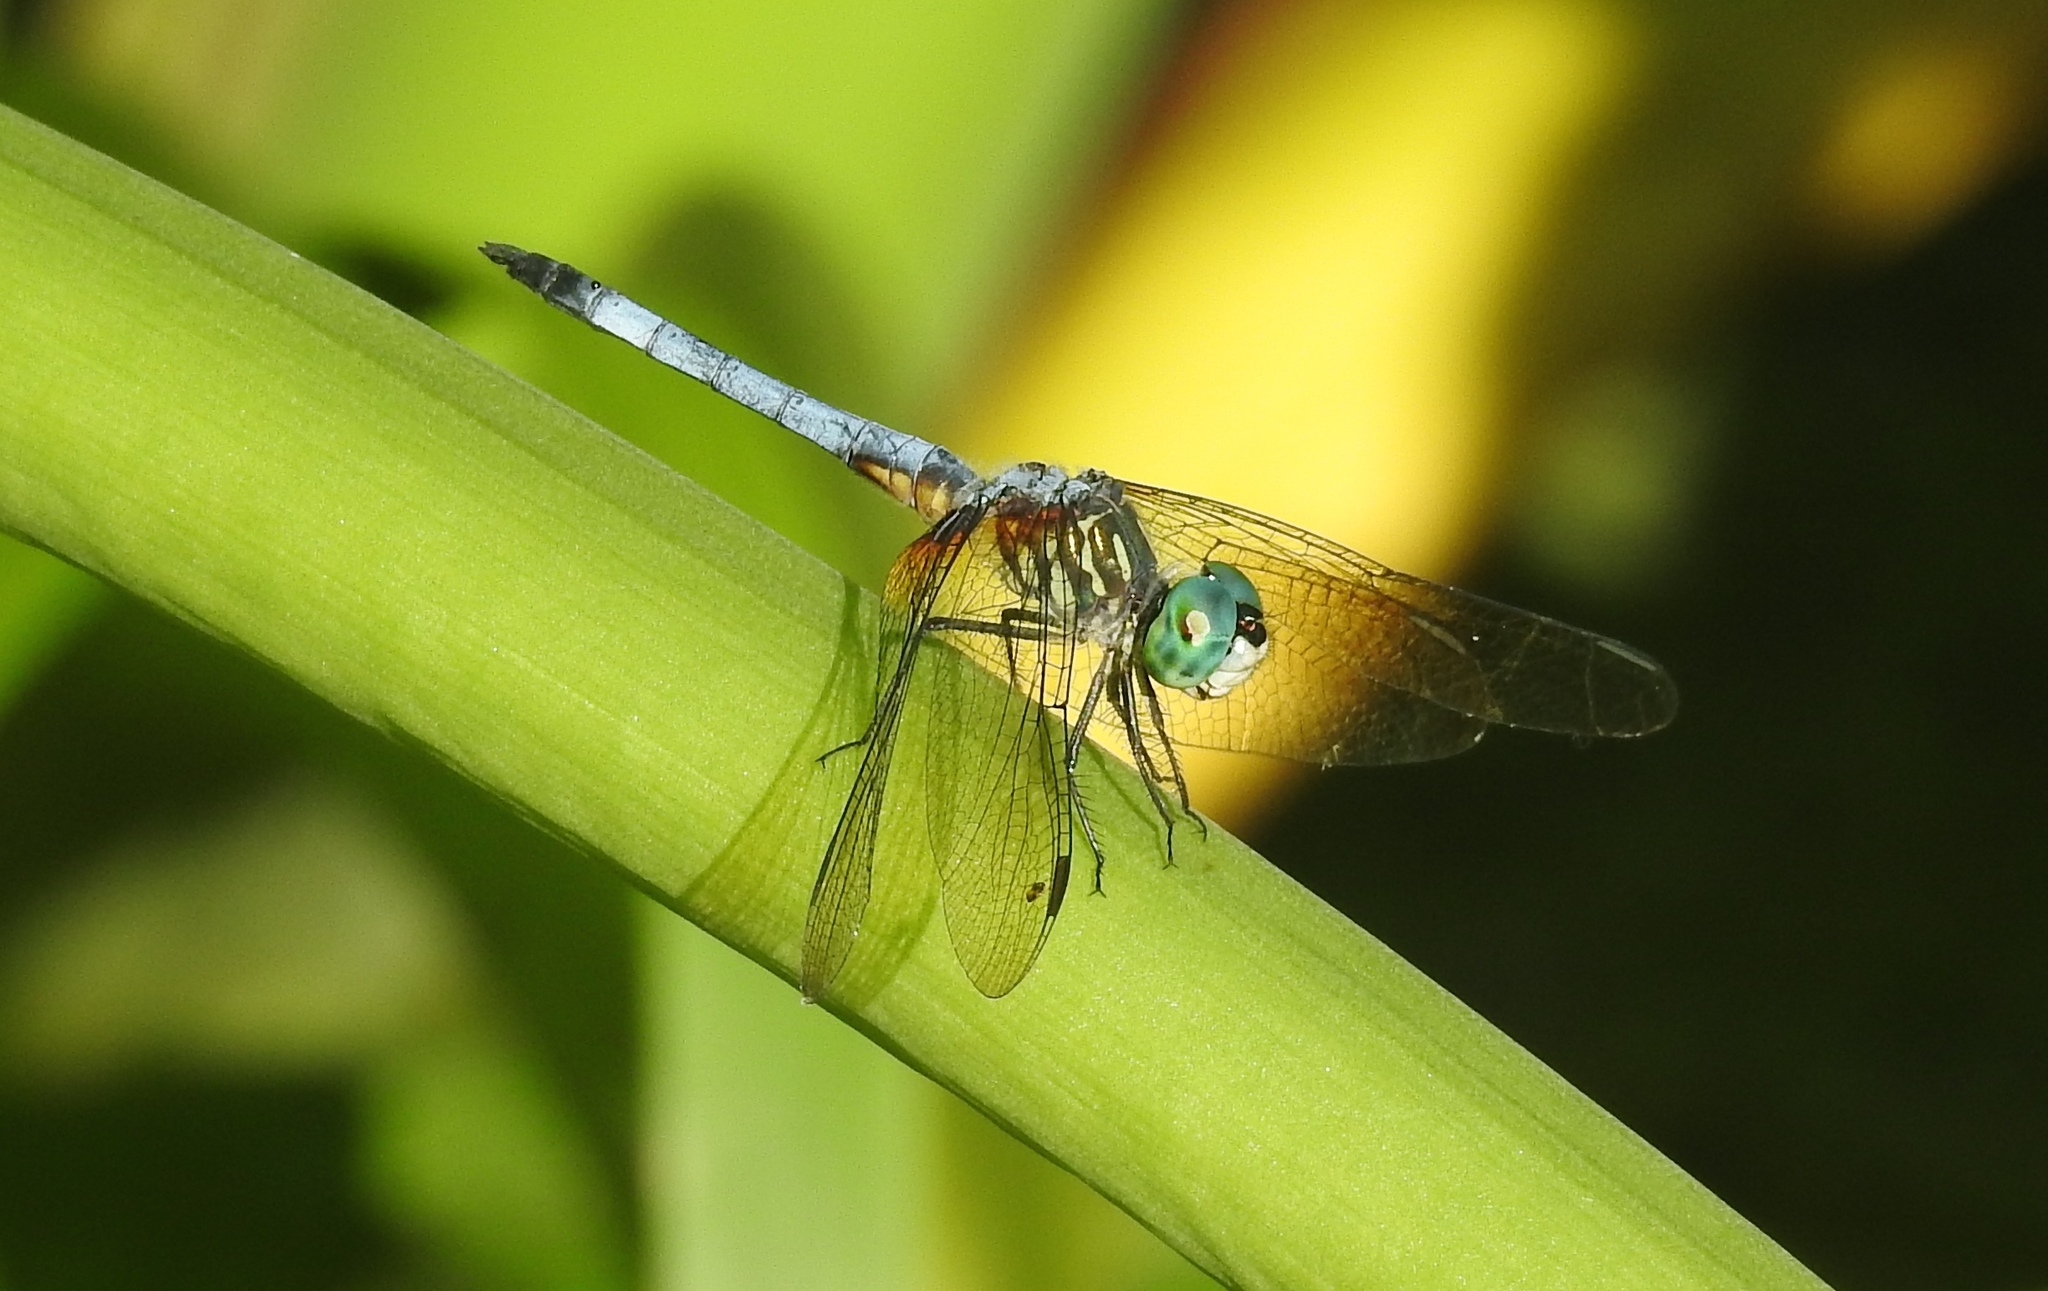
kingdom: Animalia
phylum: Arthropoda
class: Insecta
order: Odonata
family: Libellulidae
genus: Pachydiplax
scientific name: Pachydiplax longipennis
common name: Blue dasher
